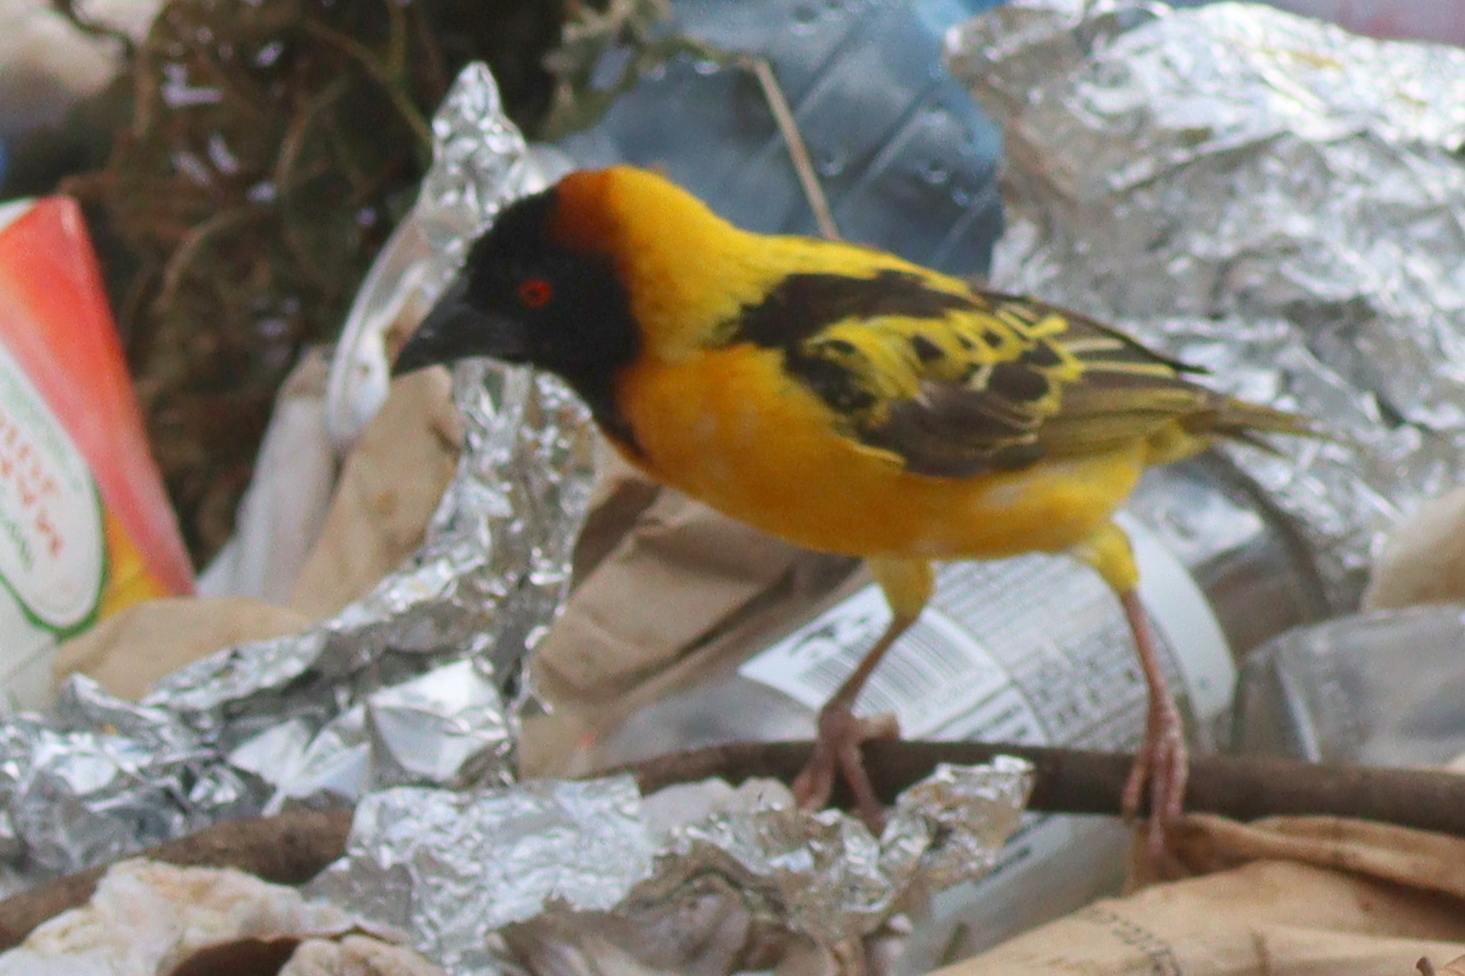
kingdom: Animalia
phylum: Chordata
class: Aves
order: Passeriformes
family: Ploceidae
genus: Ploceus
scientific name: Ploceus cucullatus
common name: Village weaver
